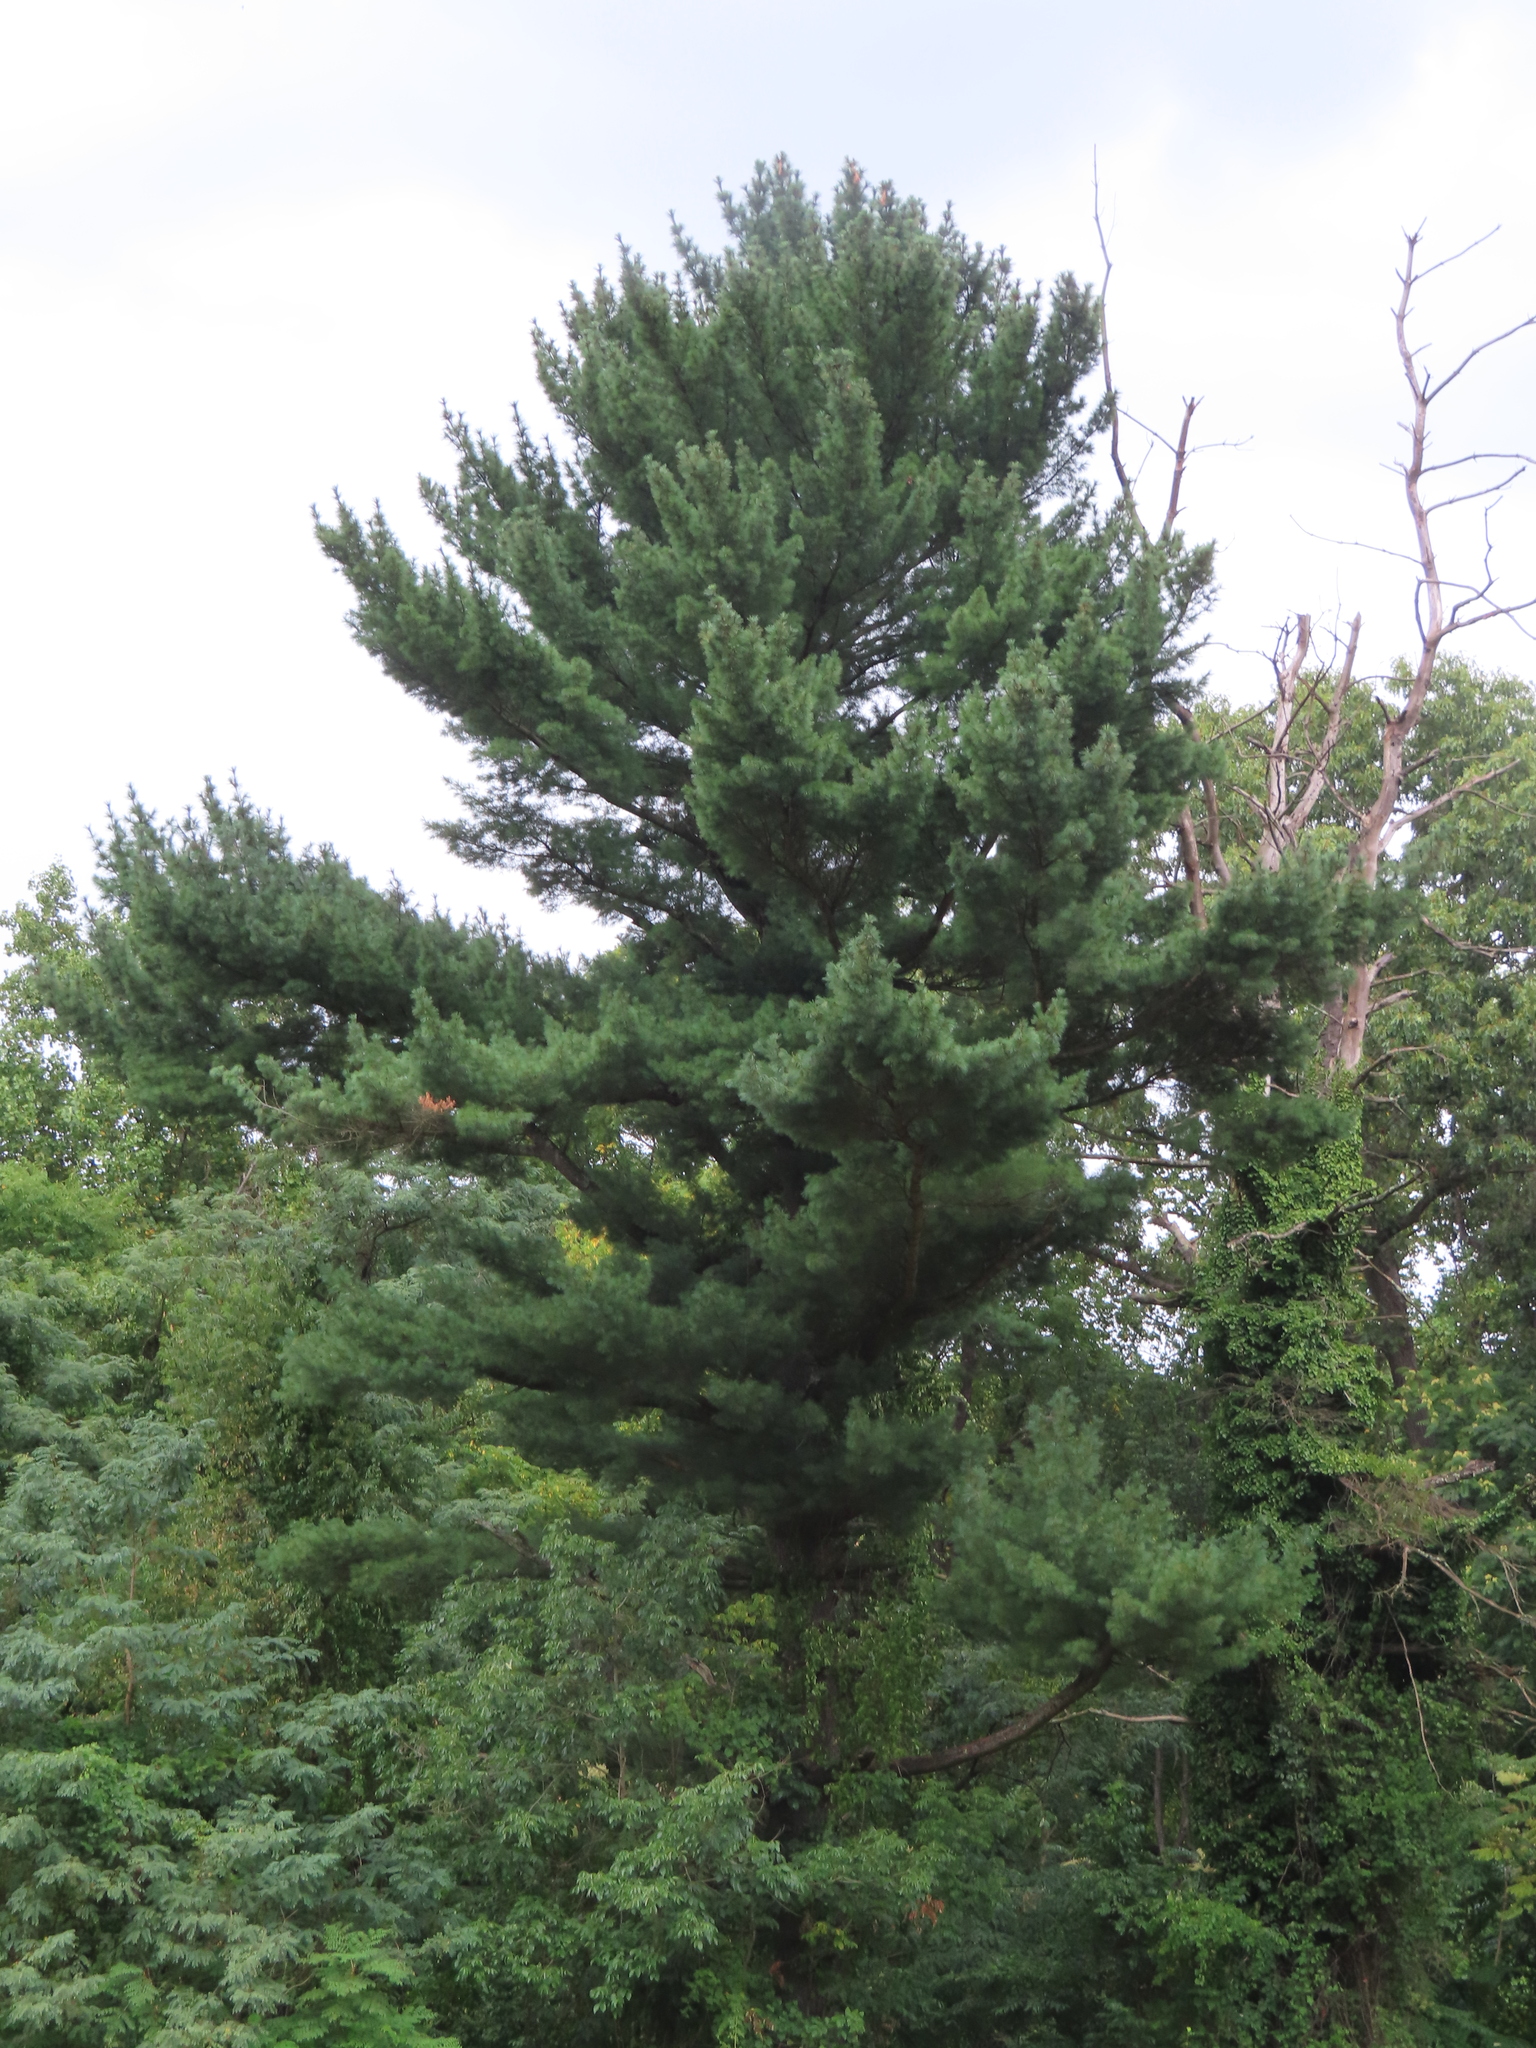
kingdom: Plantae
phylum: Tracheophyta
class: Pinopsida
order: Pinales
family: Pinaceae
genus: Pinus
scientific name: Pinus strobus
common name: Weymouth pine
